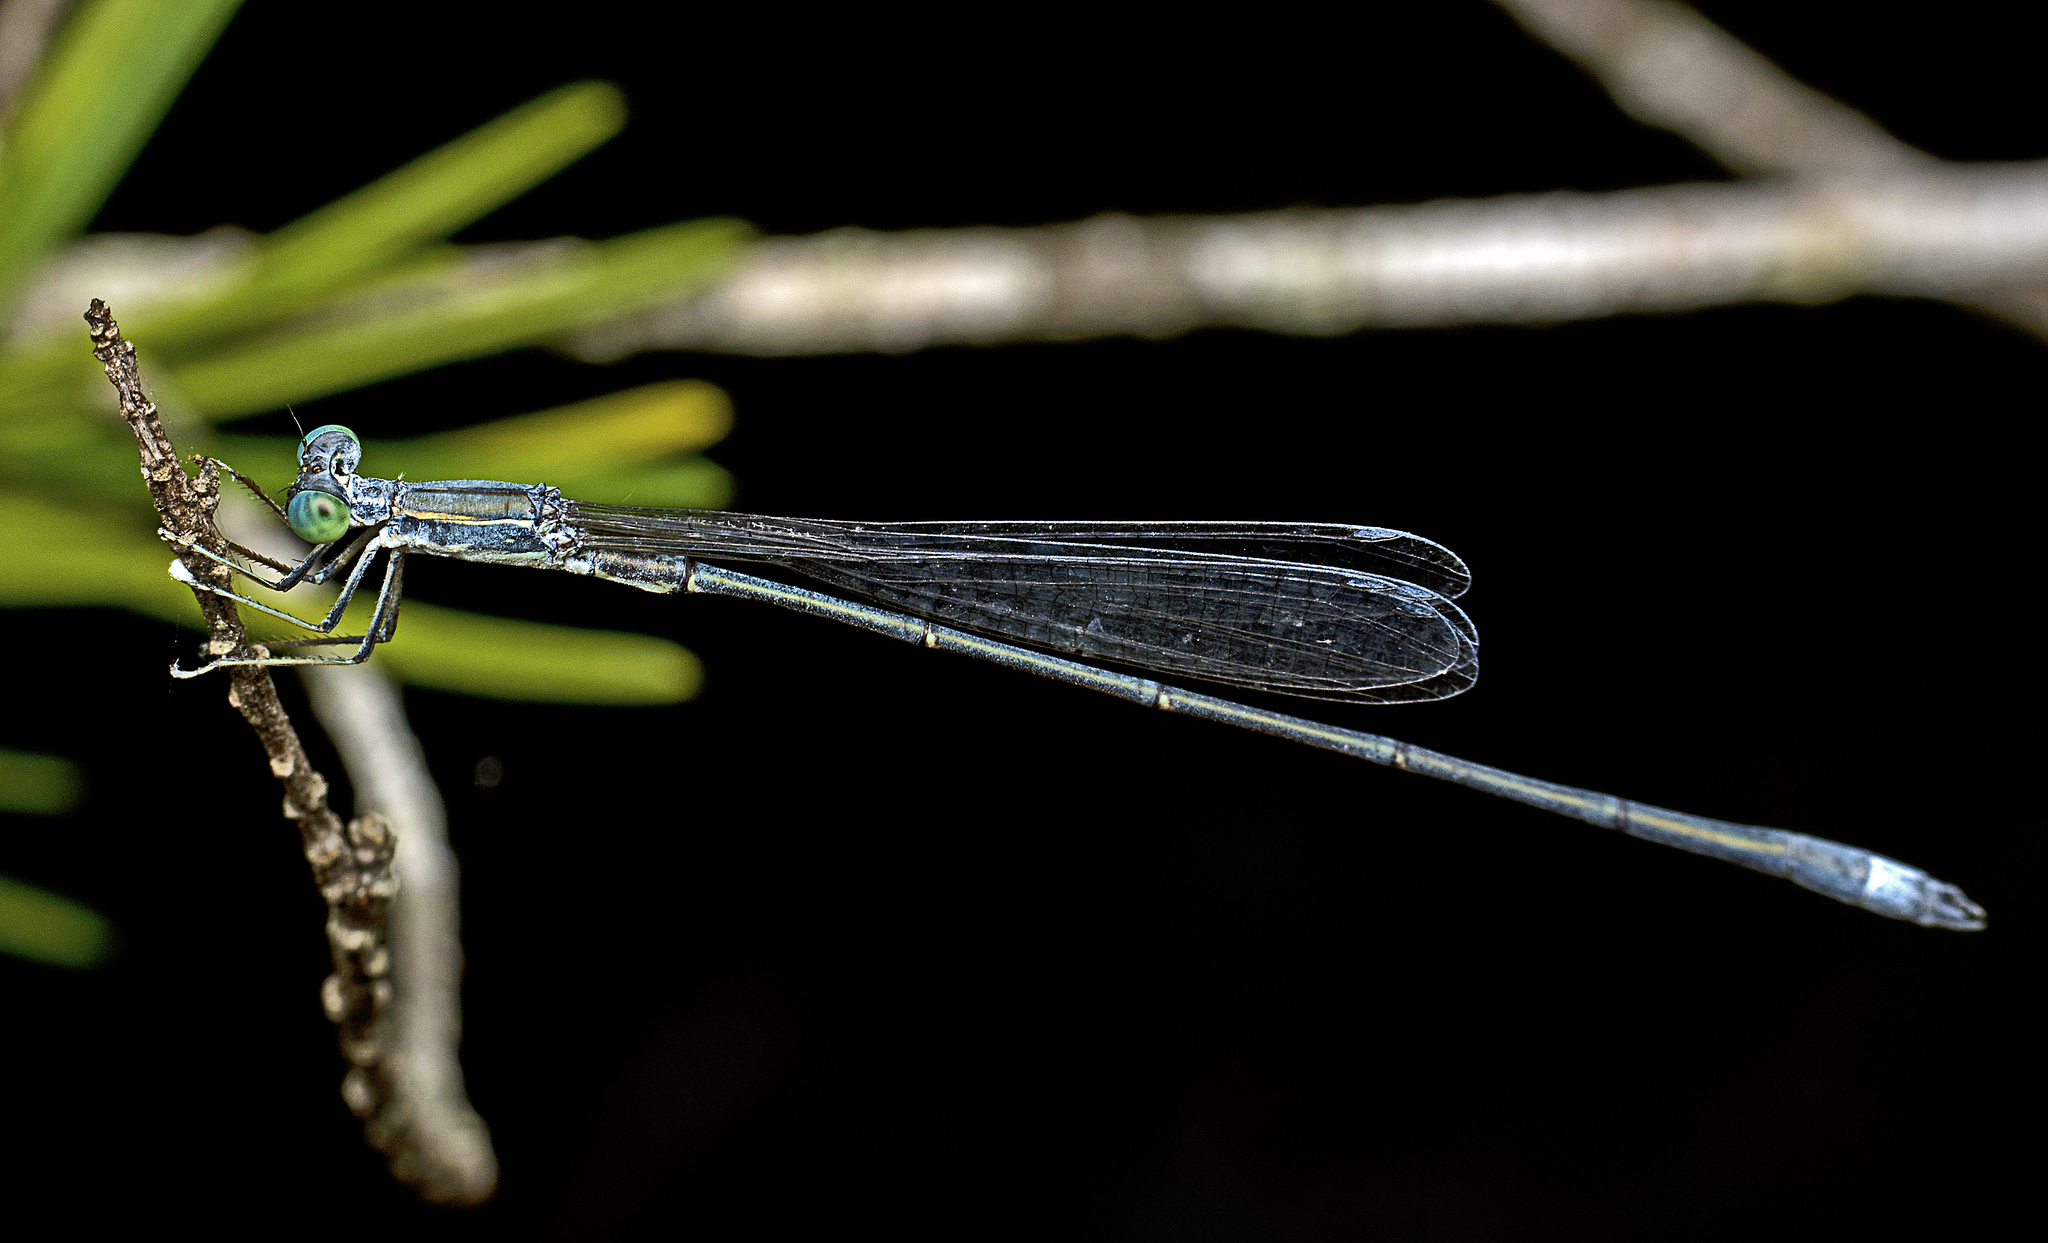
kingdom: Animalia
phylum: Arthropoda
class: Insecta
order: Odonata
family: Isostictidae
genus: Rhadinosticta
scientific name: Rhadinosticta simplex
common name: Powdered wiretail
